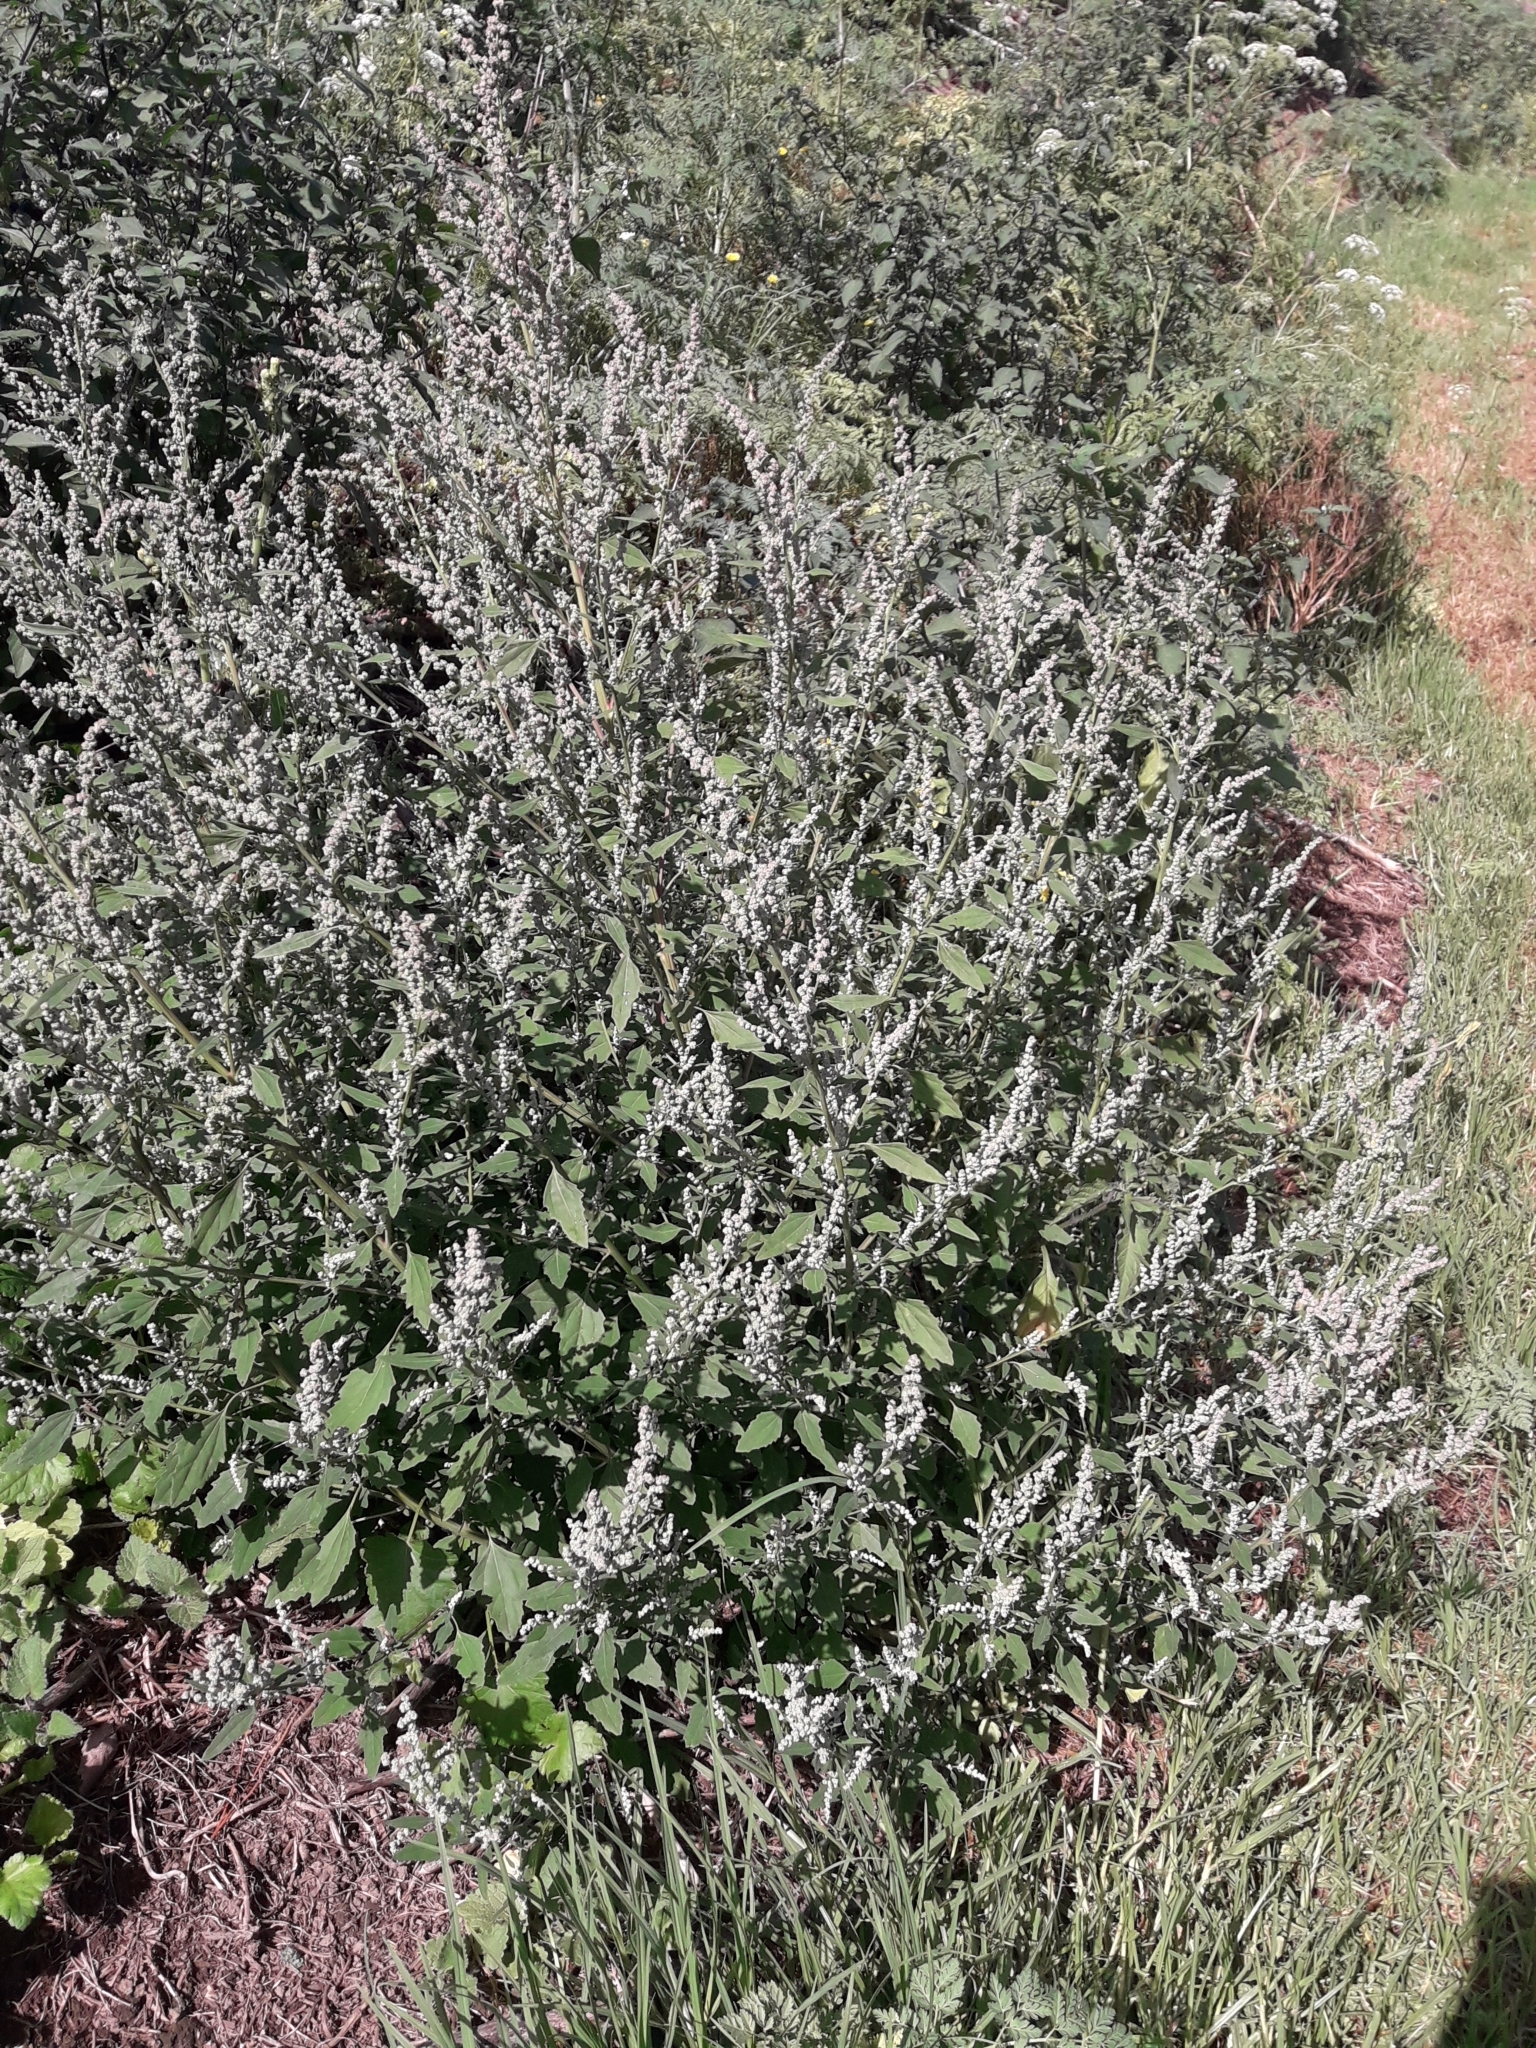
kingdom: Plantae
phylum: Tracheophyta
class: Magnoliopsida
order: Caryophyllales
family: Amaranthaceae
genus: Chenopodium
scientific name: Chenopodium album
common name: Fat-hen
